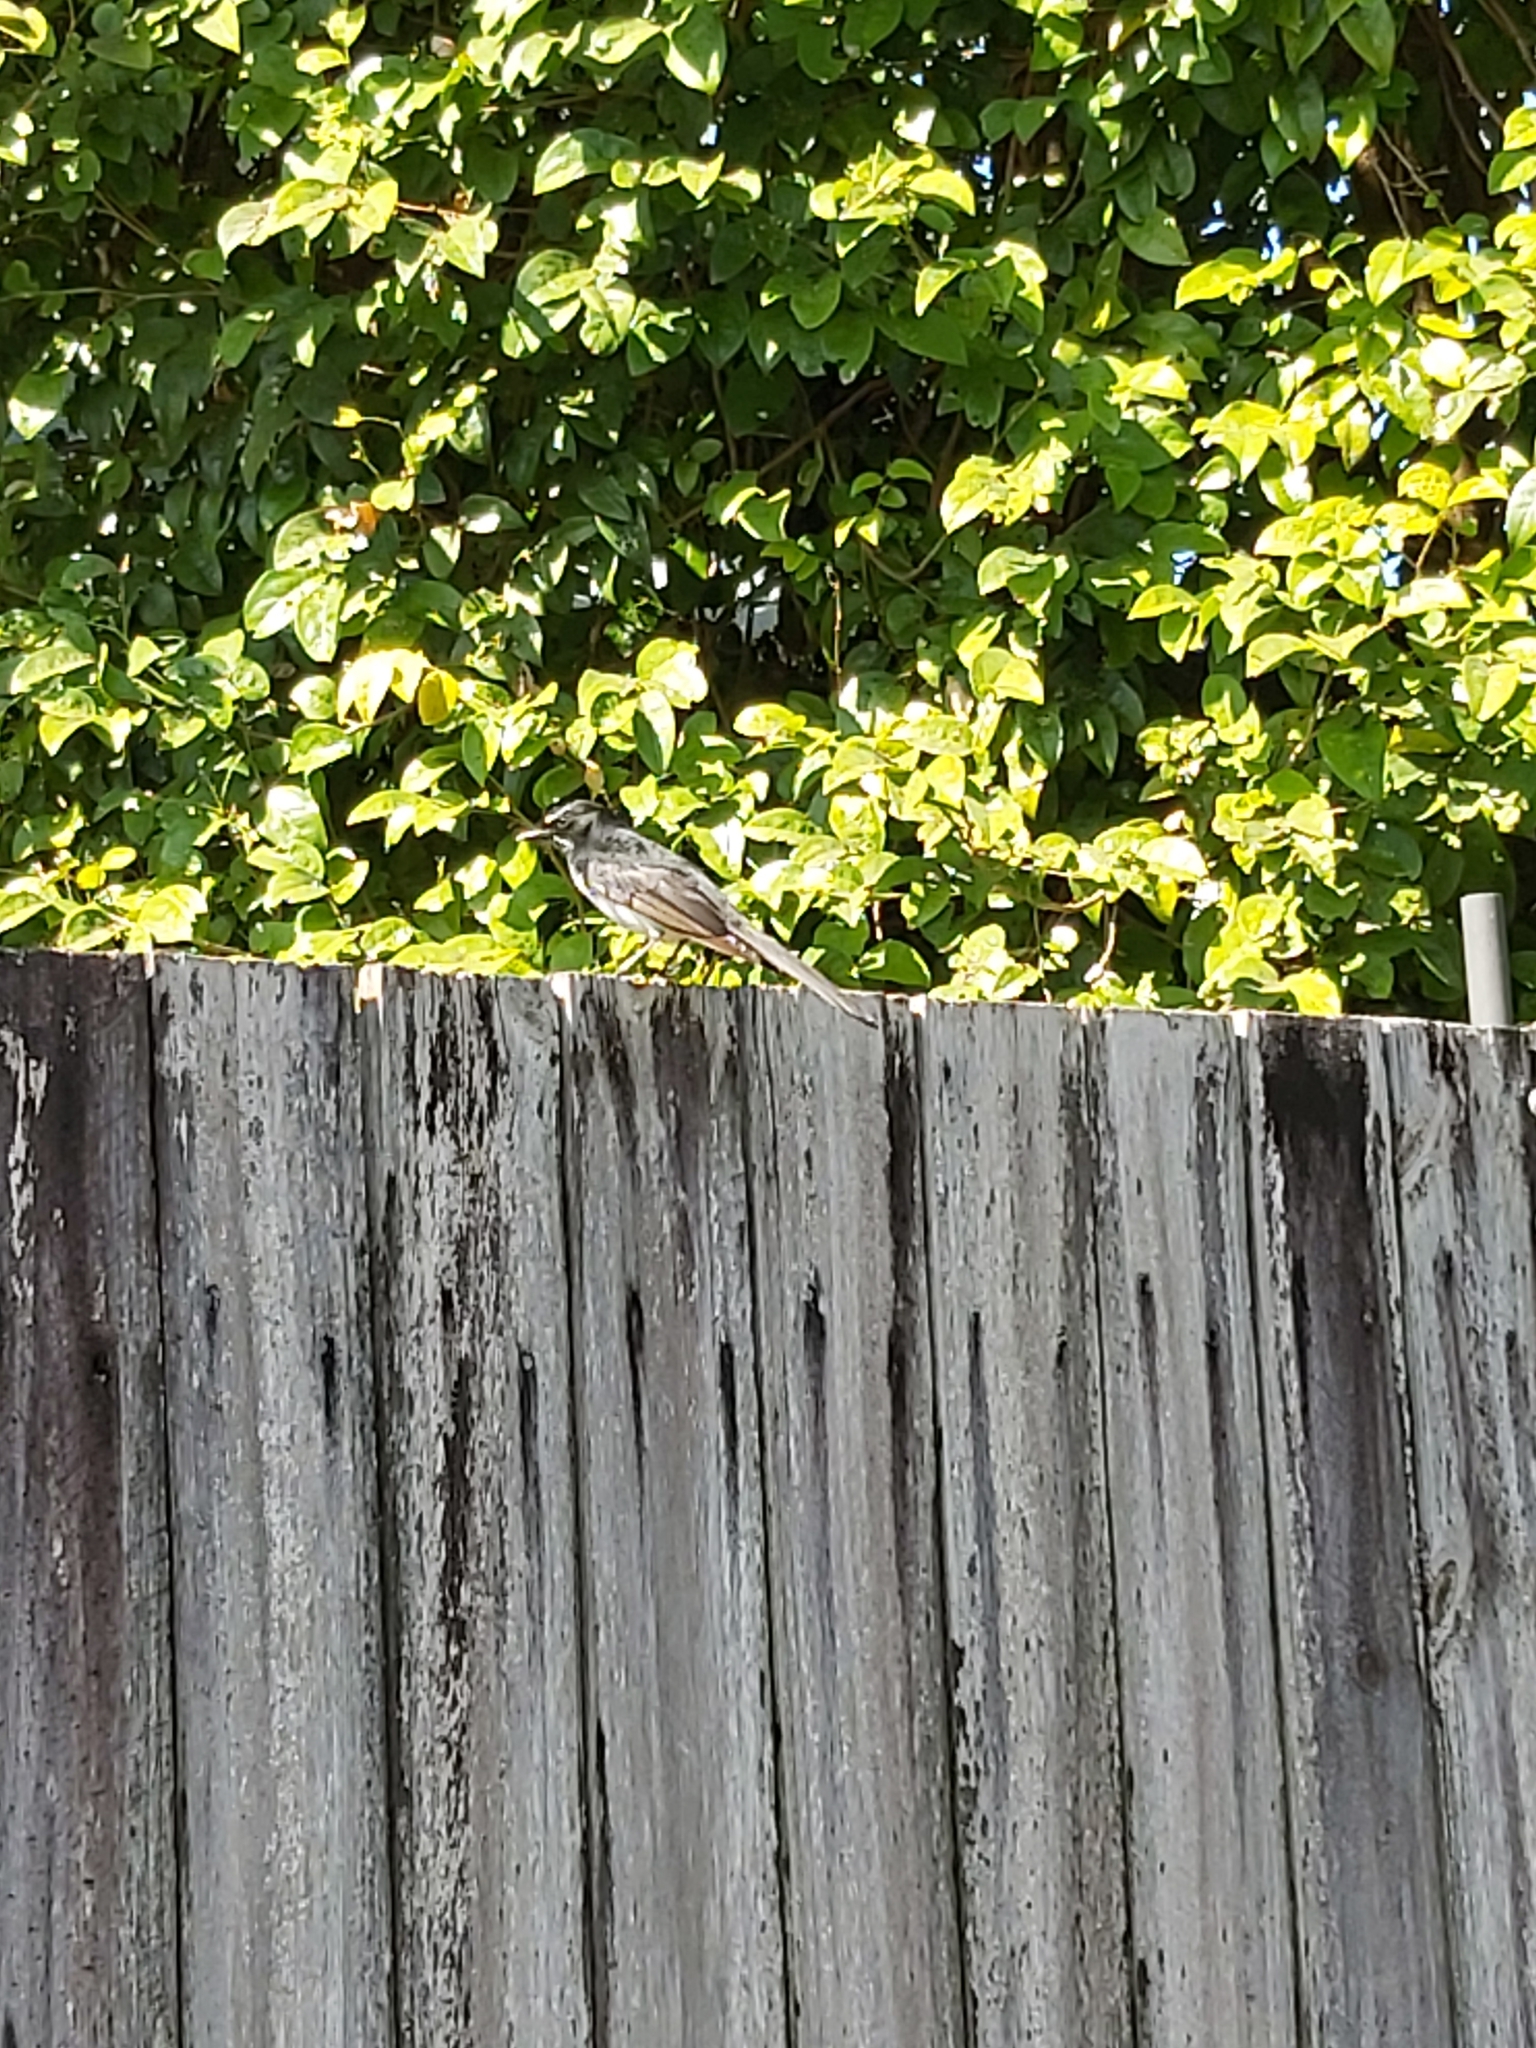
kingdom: Animalia
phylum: Chordata
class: Aves
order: Passeriformes
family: Rhipiduridae
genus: Rhipidura
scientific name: Rhipidura leucophrys
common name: Willie wagtail
